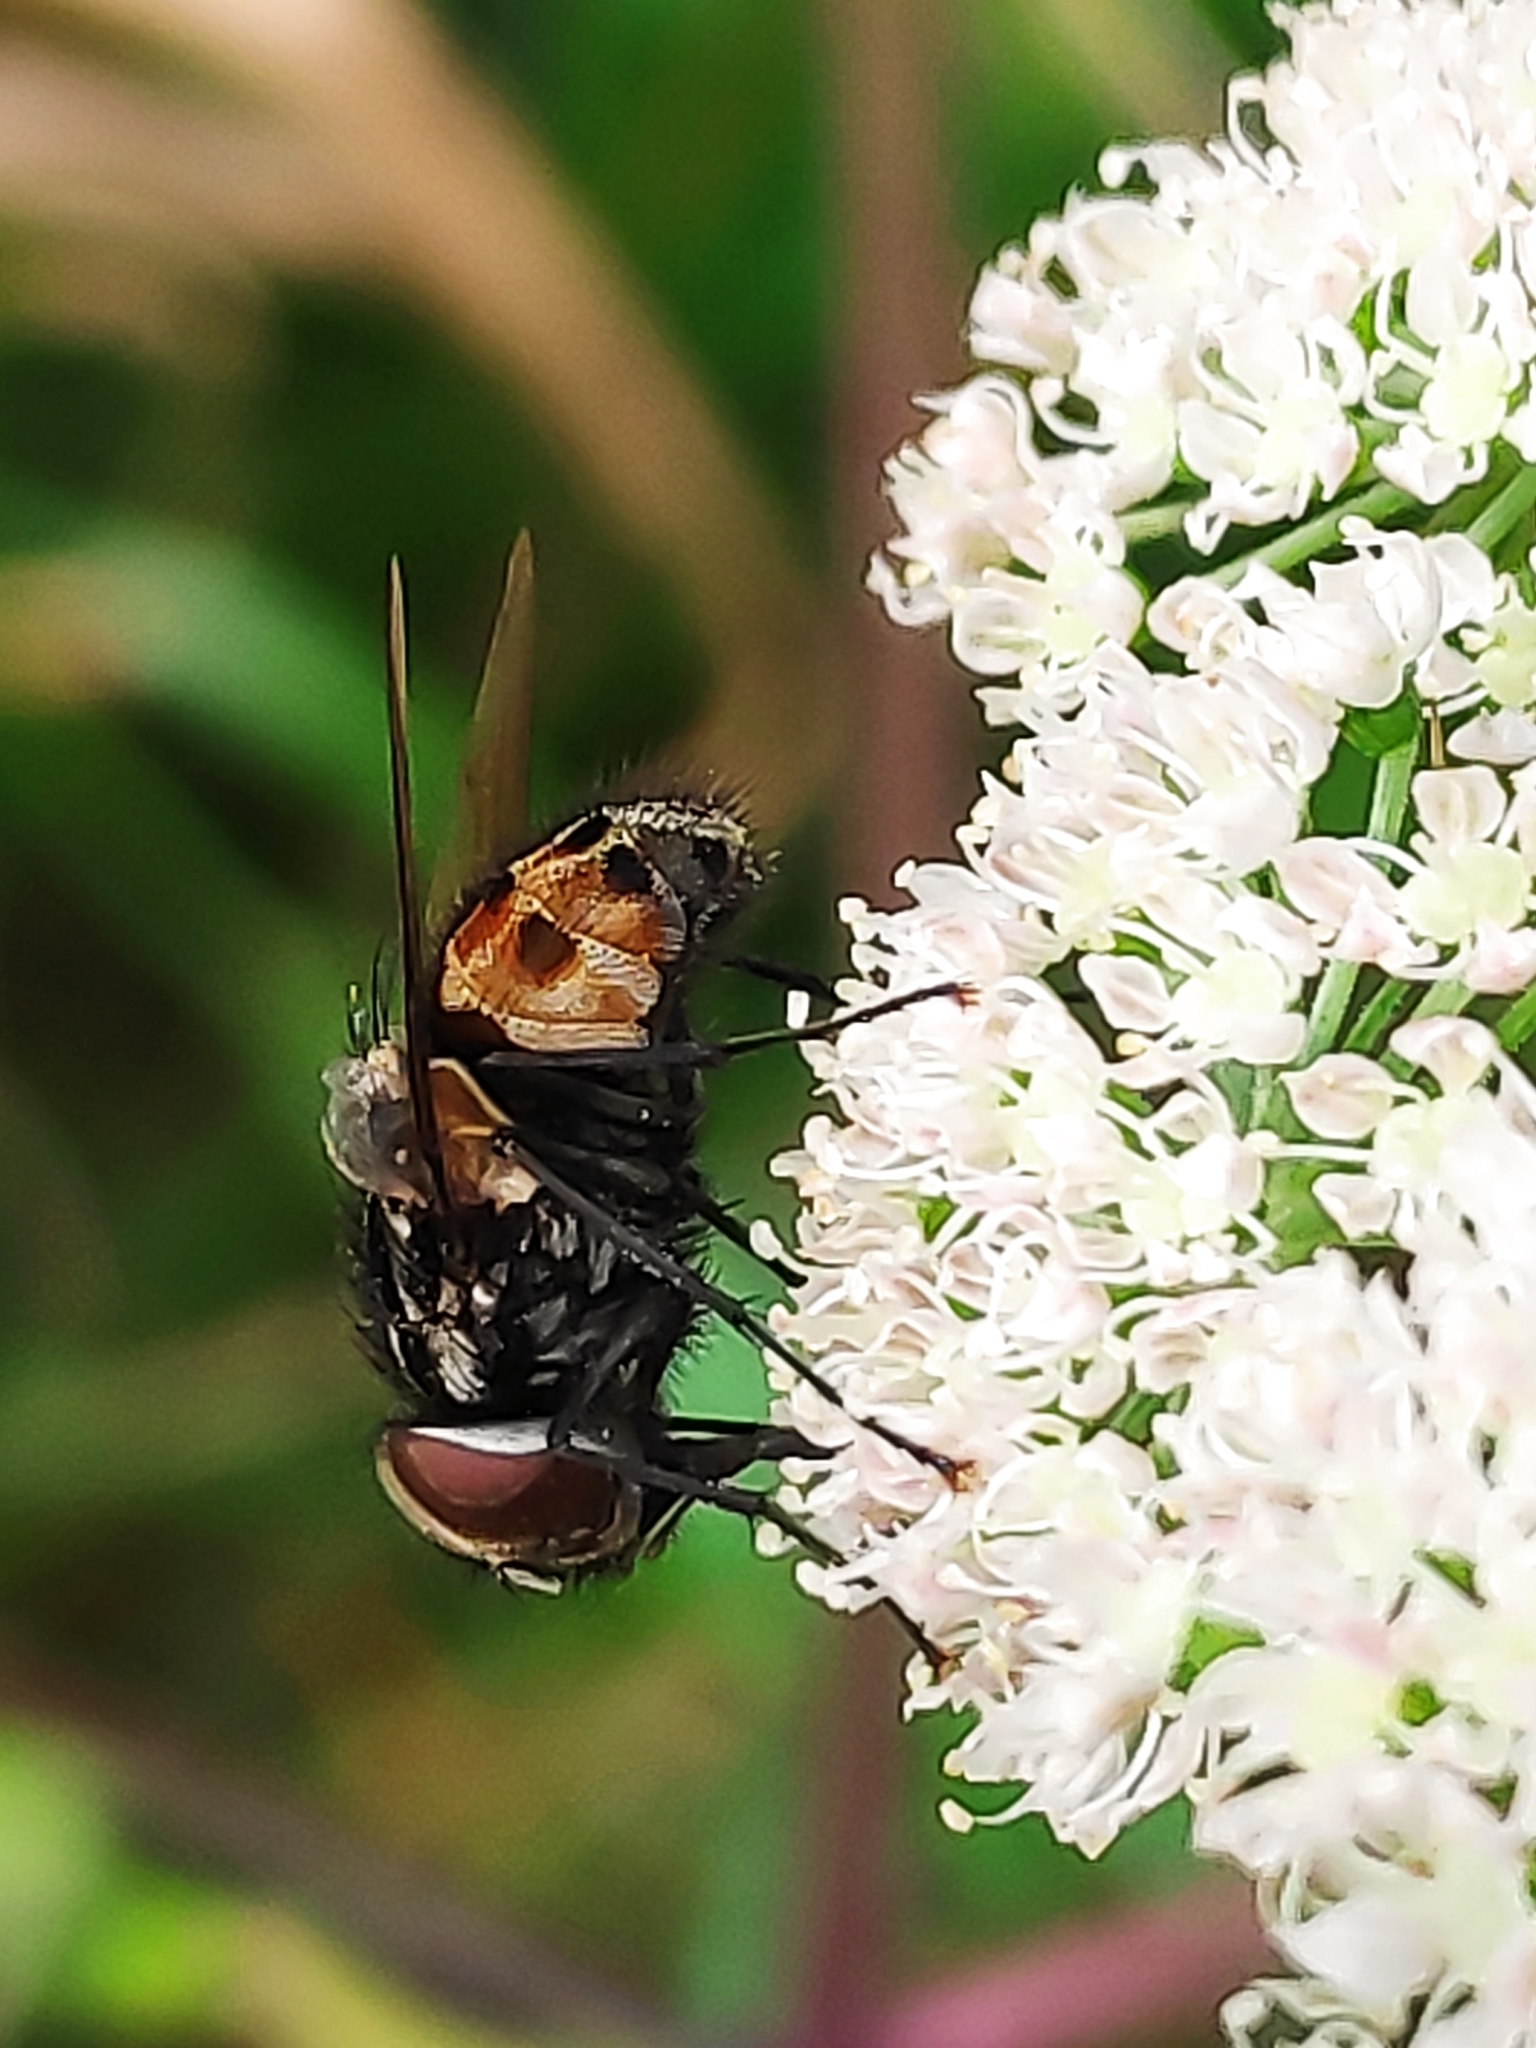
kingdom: Animalia
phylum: Arthropoda
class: Insecta
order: Diptera
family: Muscidae
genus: Graphomya
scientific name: Graphomya maculata
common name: Muscid fly
